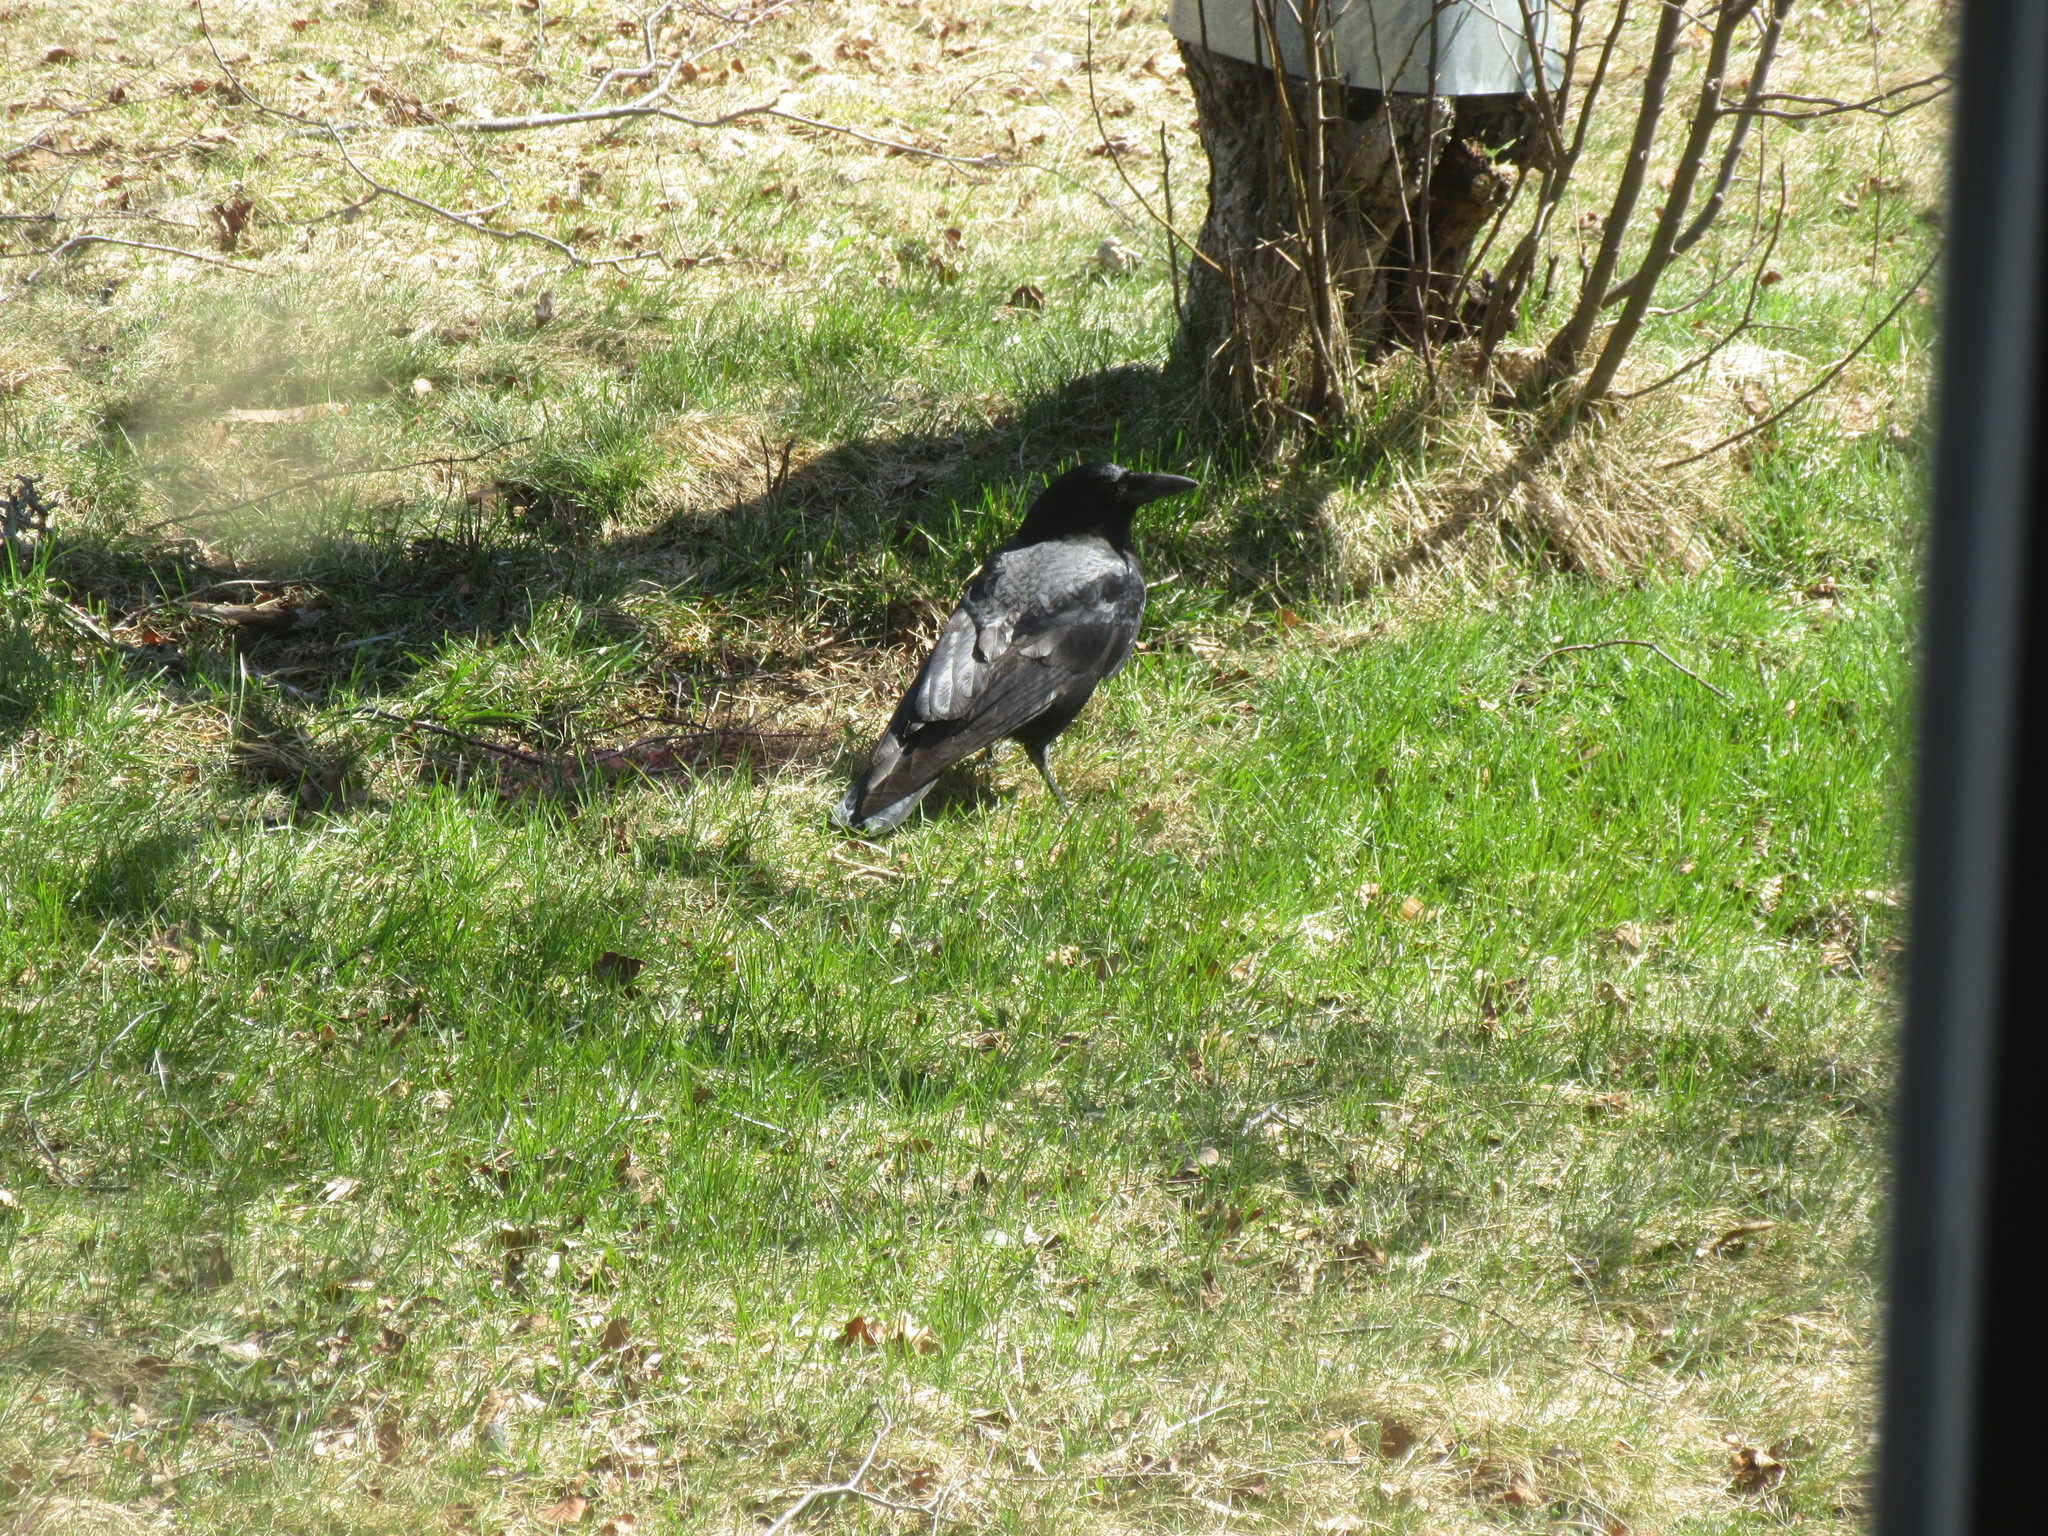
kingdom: Animalia
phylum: Chordata
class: Aves
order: Passeriformes
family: Corvidae
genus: Corvus
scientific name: Corvus brachyrhynchos
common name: American crow
